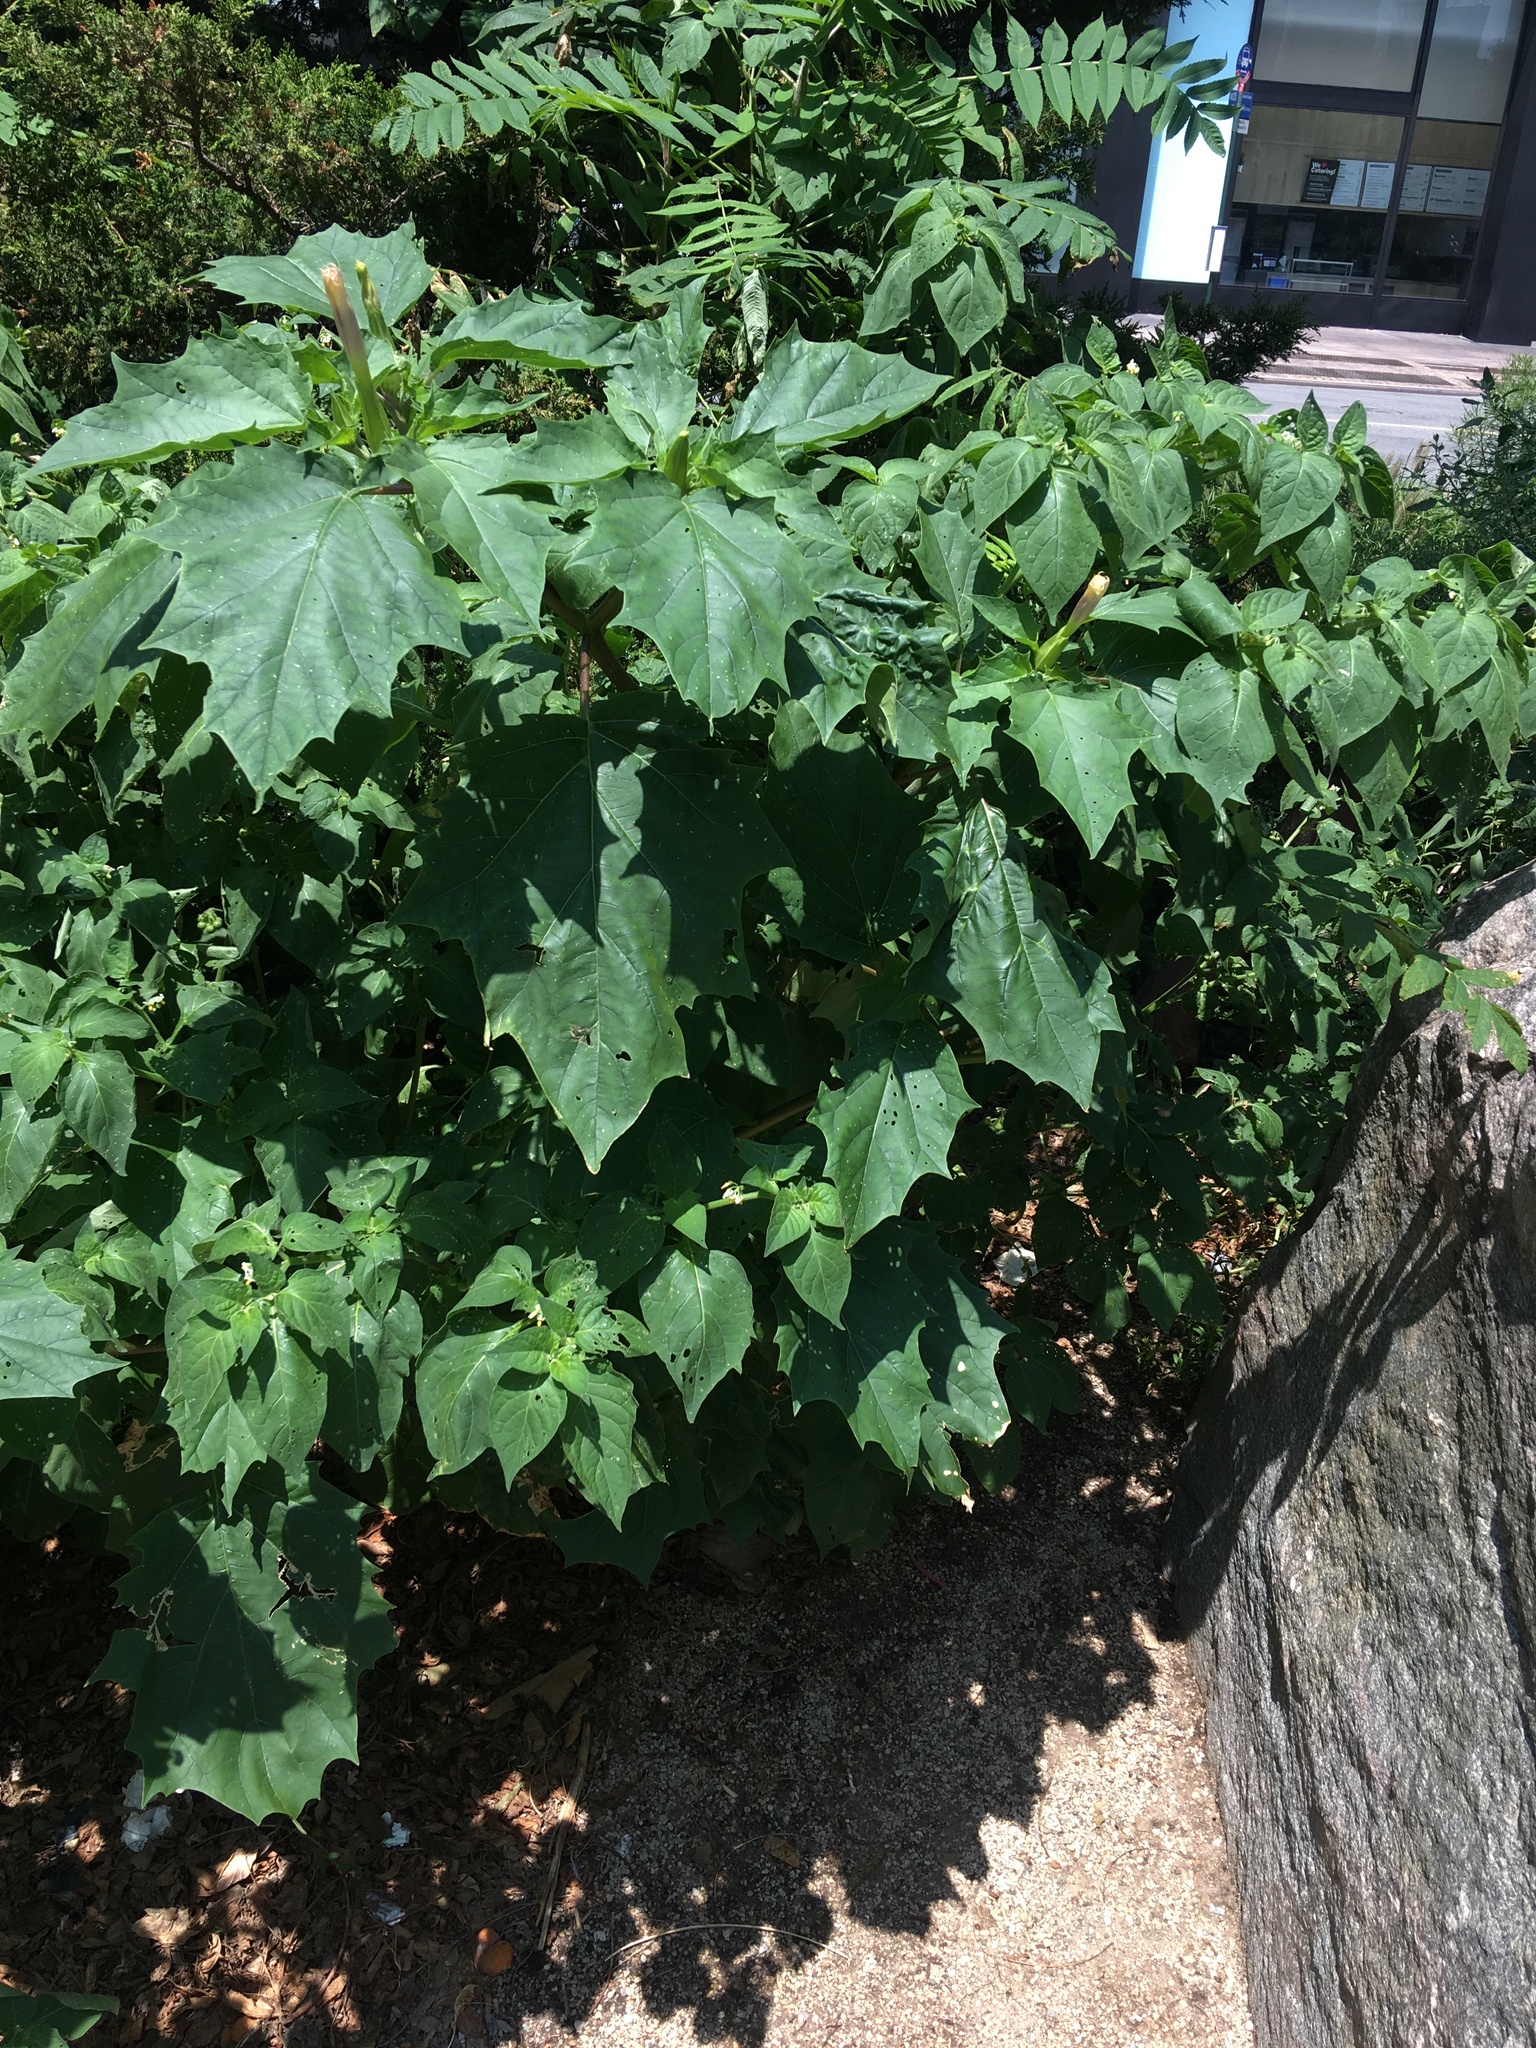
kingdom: Plantae
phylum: Tracheophyta
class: Magnoliopsida
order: Solanales
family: Solanaceae
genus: Datura
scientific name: Datura stramonium
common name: Thorn-apple
